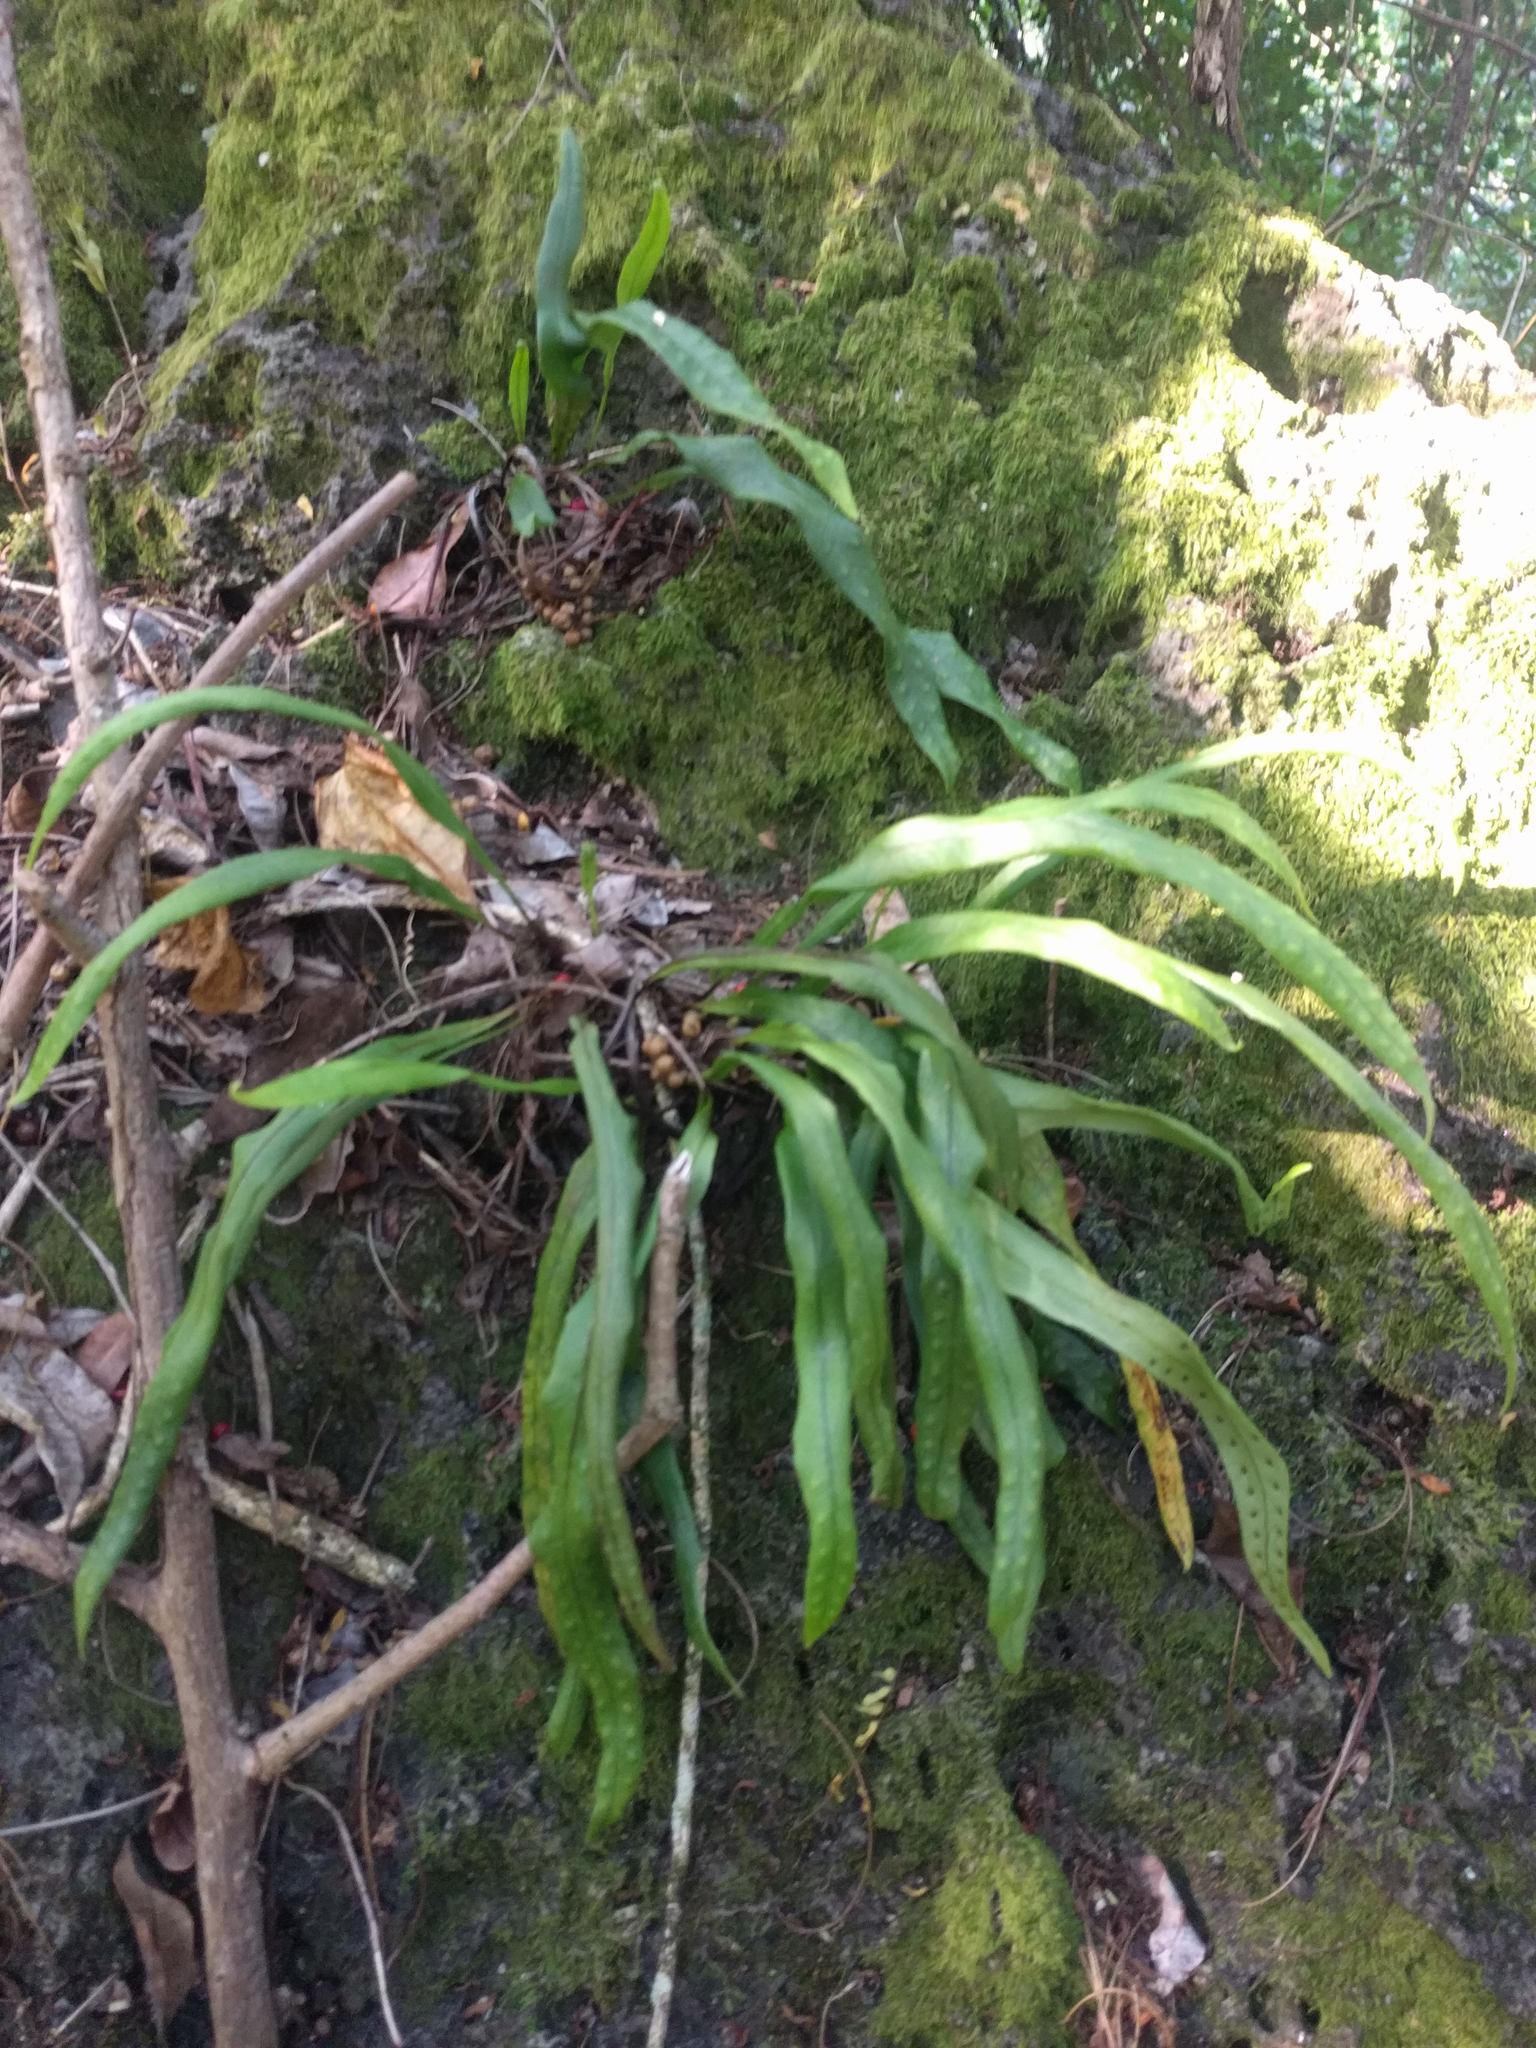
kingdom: Plantae
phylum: Tracheophyta
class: Polypodiopsida
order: Polypodiales
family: Polypodiaceae
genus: Lepisorus
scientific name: Lepisorus thunbergianus
